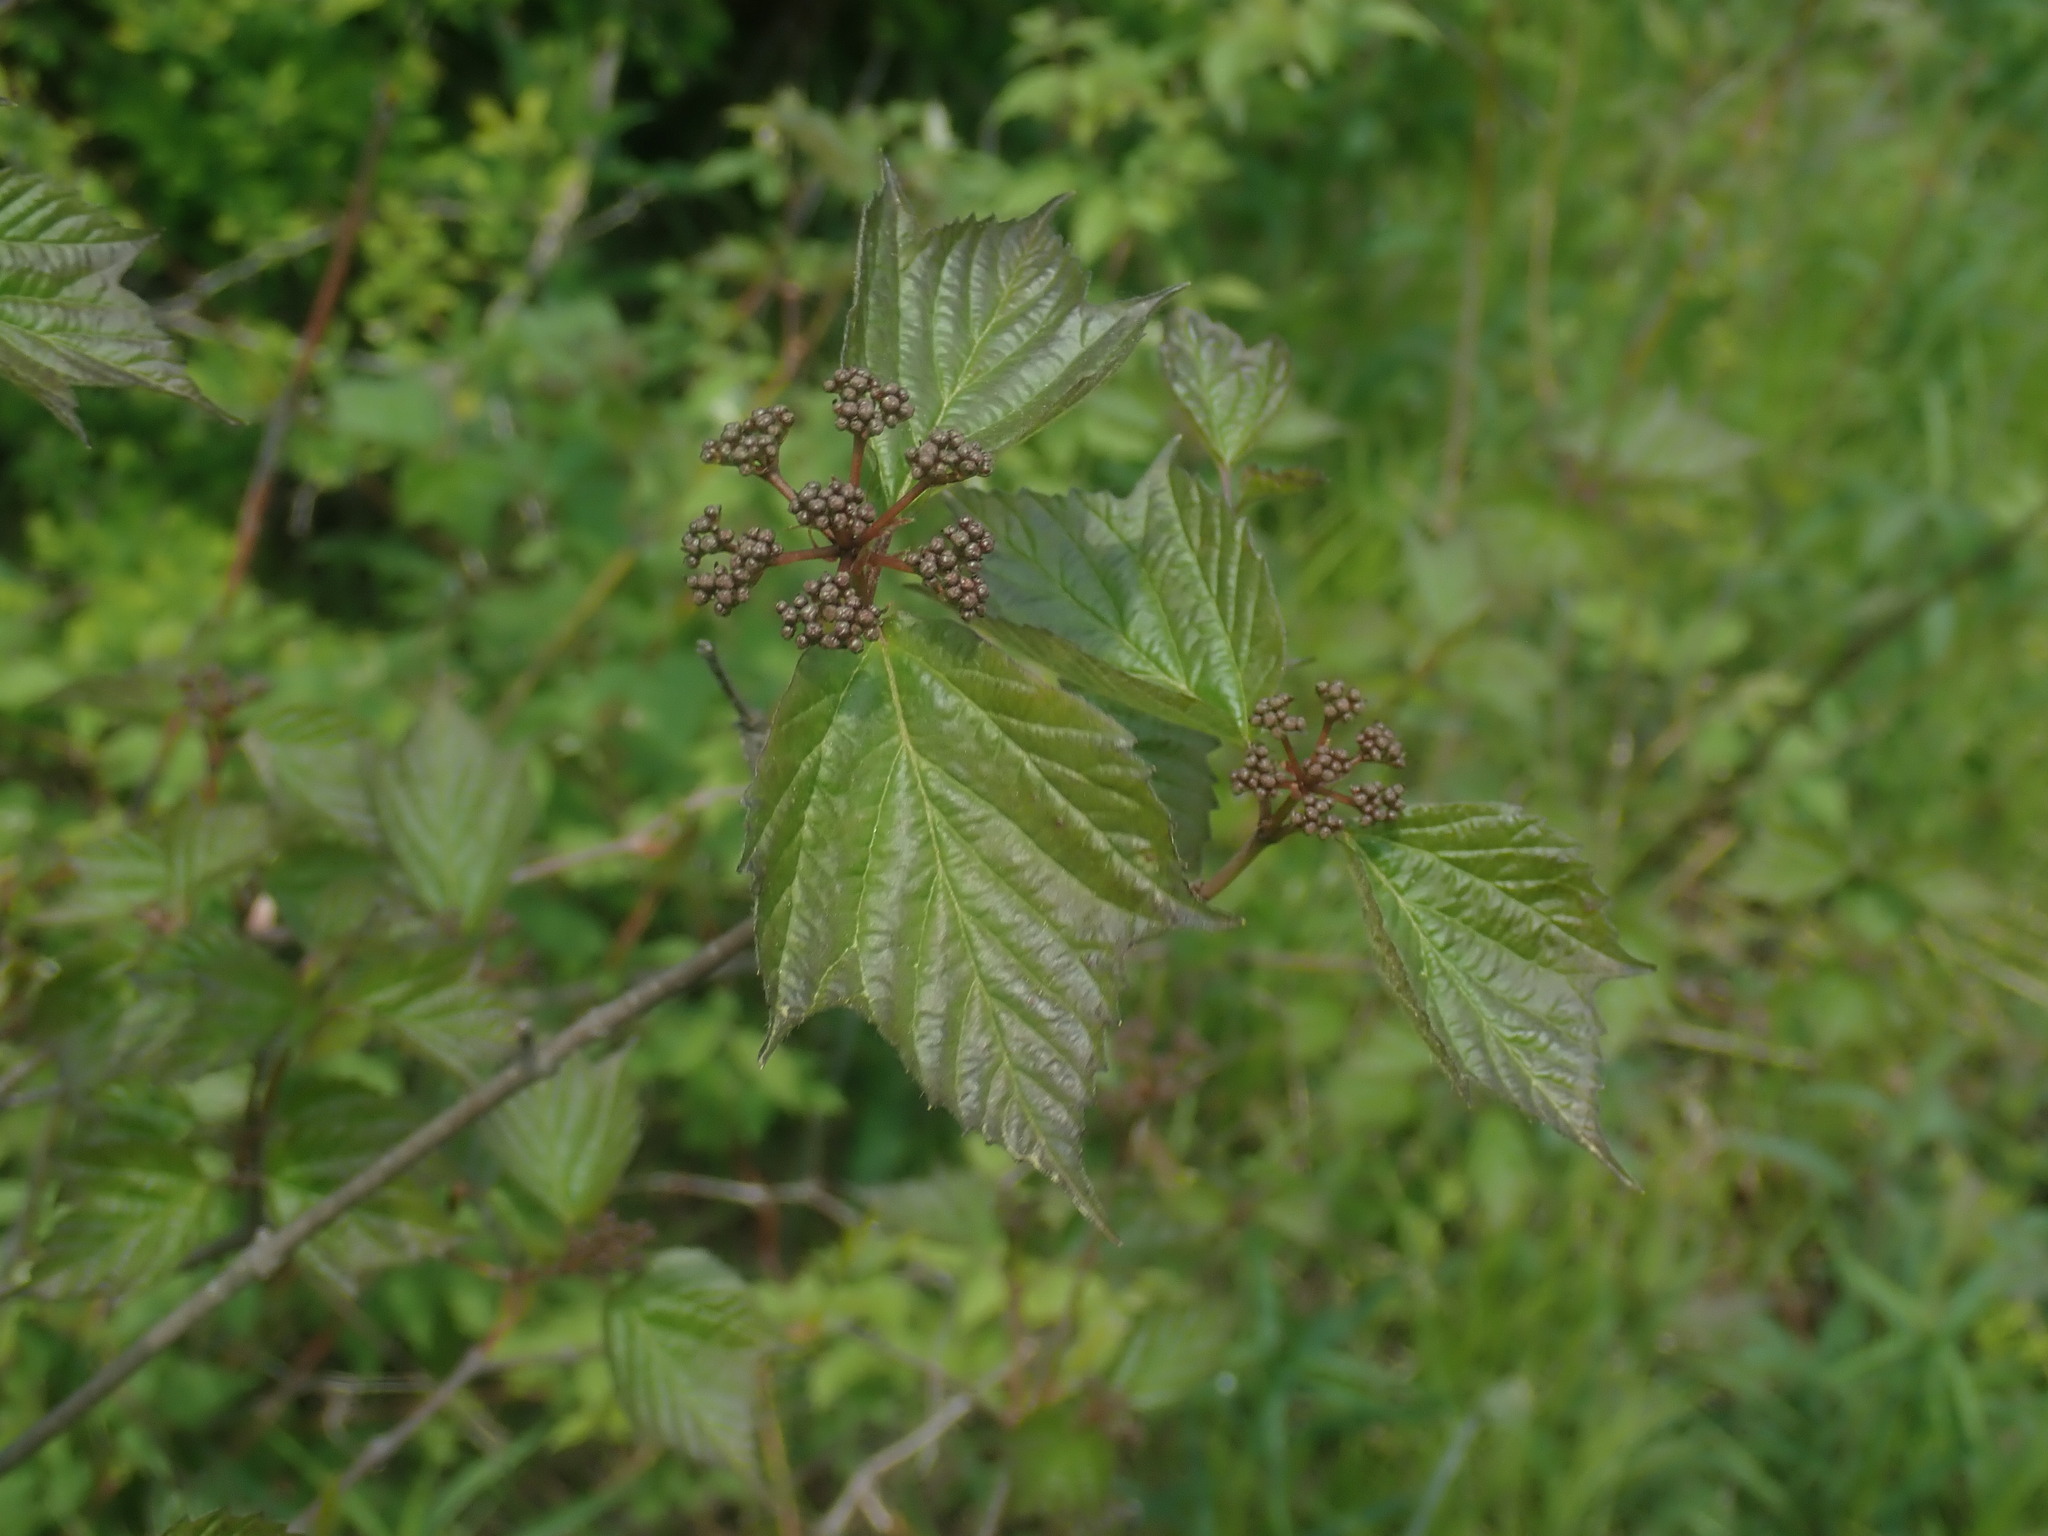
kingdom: Plantae
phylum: Tracheophyta
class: Magnoliopsida
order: Dipsacales
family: Viburnaceae
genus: Viburnum
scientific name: Viburnum acerifolium
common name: Dockmackie
